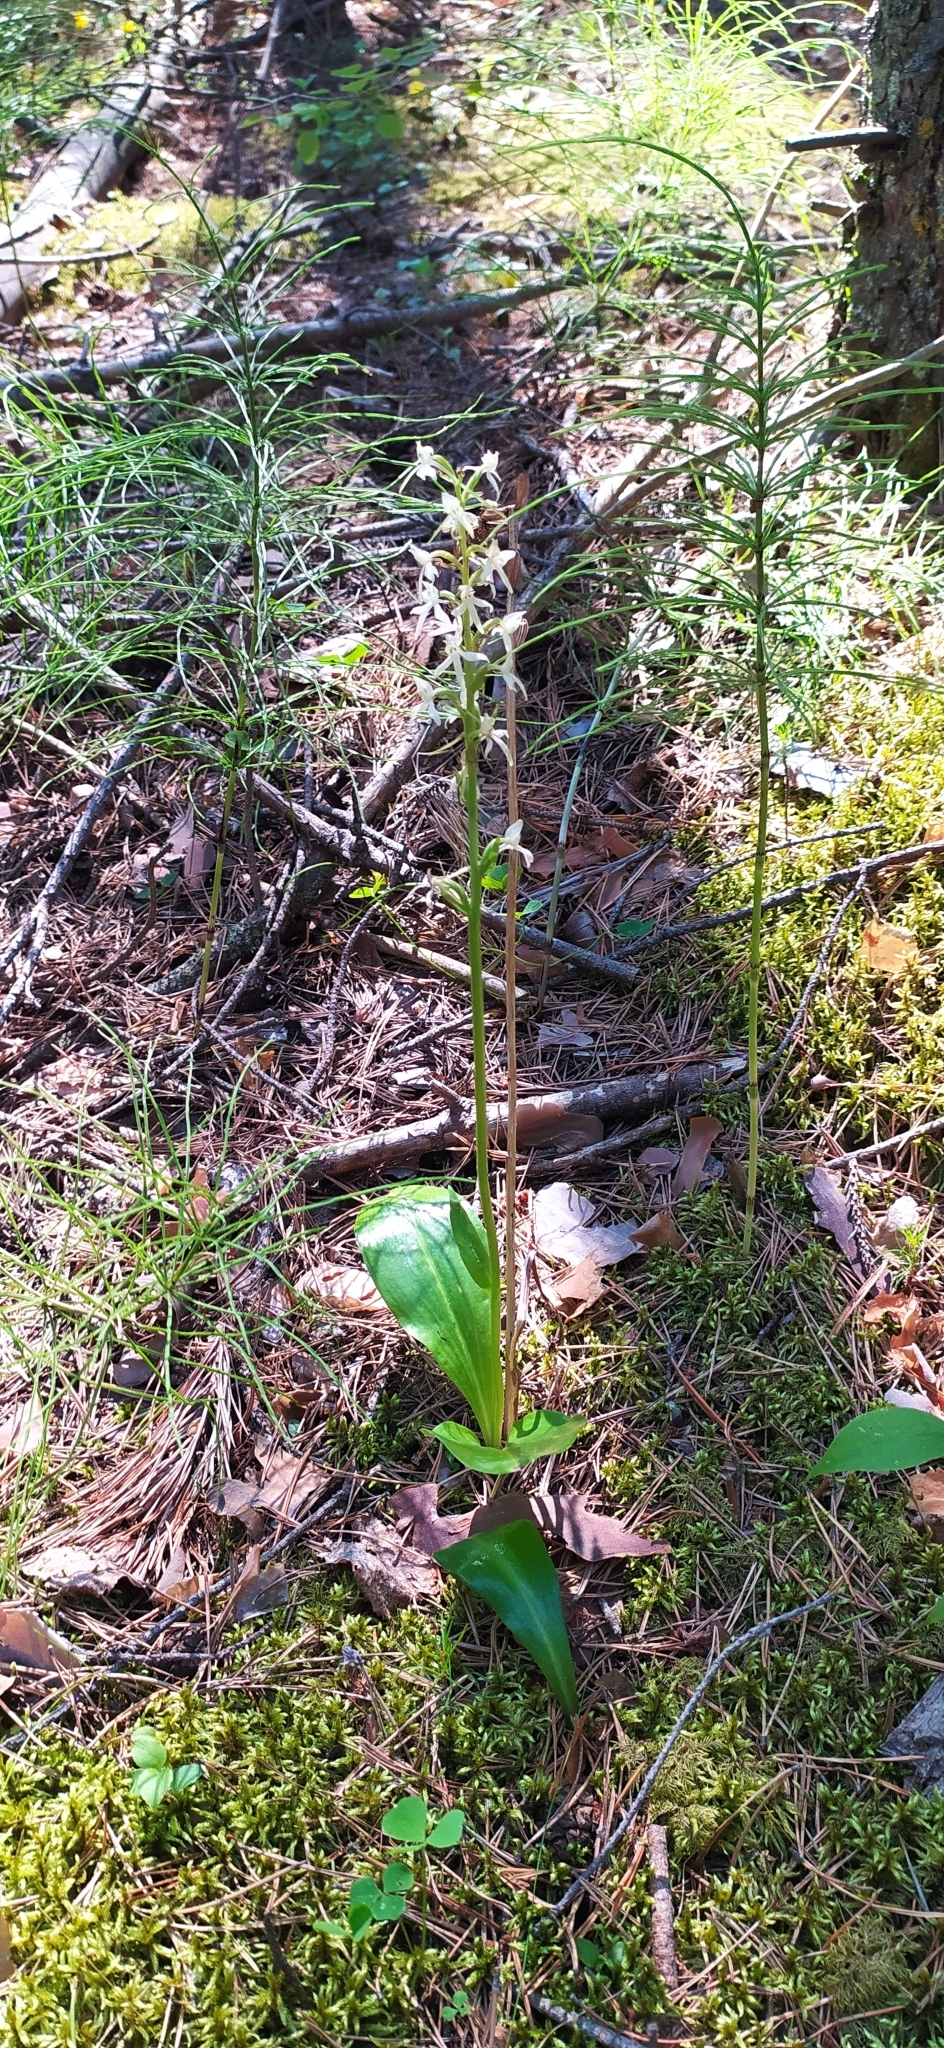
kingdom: Plantae
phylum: Tracheophyta
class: Liliopsida
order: Asparagales
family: Orchidaceae
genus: Platanthera
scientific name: Platanthera bifolia
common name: Lesser butterfly-orchid
